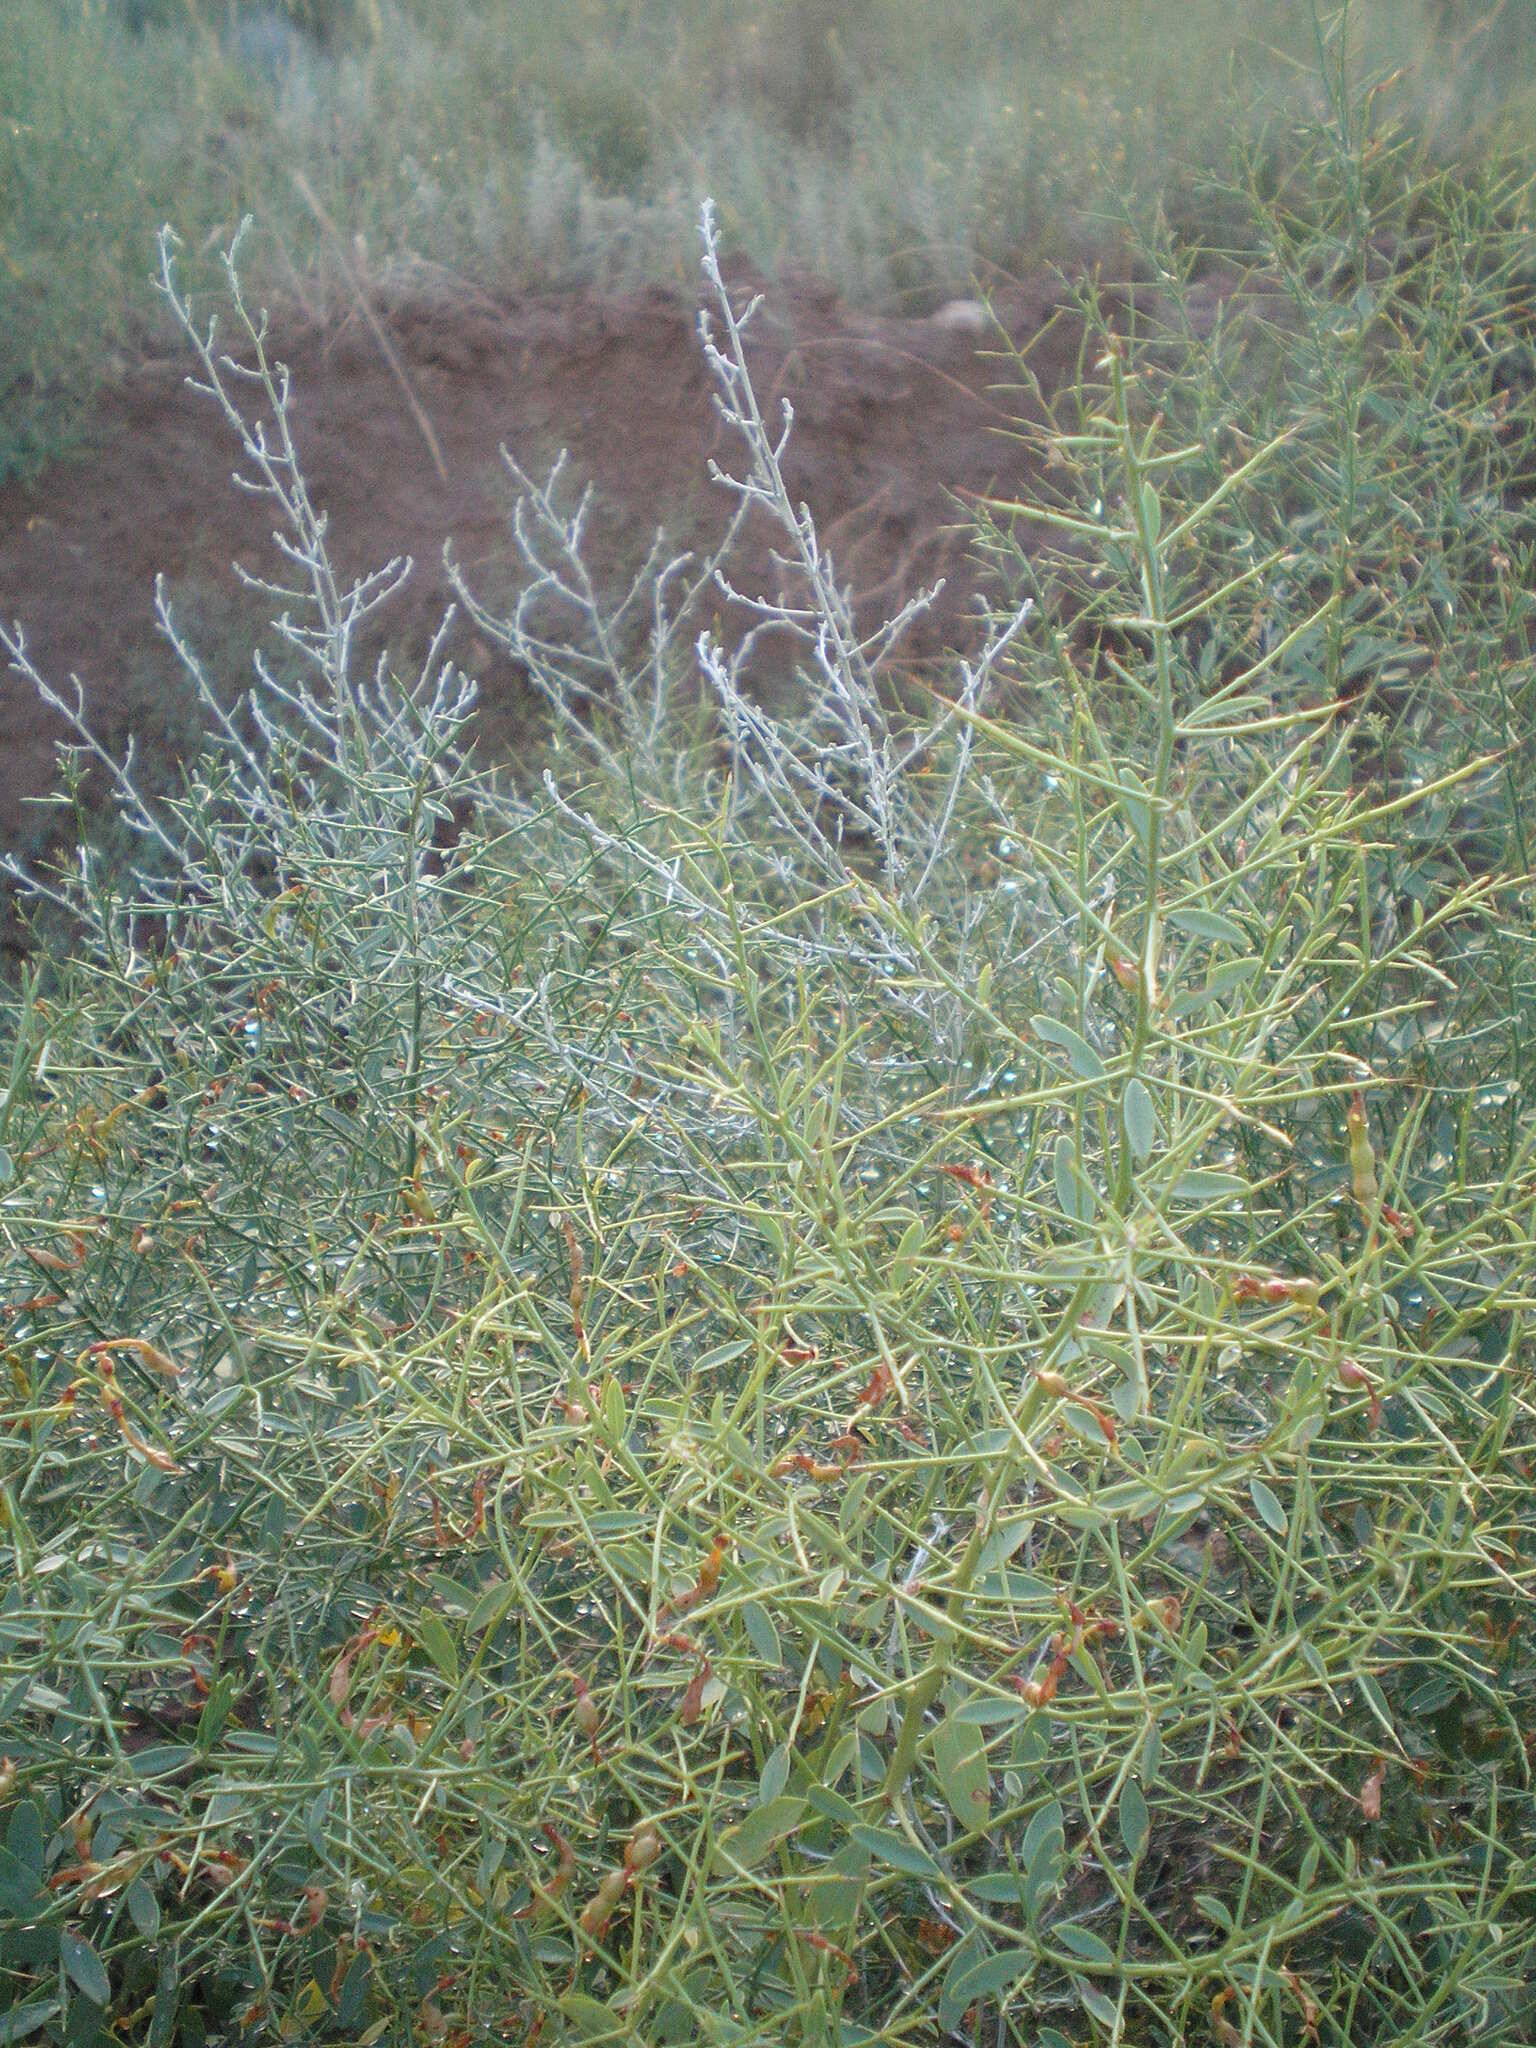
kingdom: Plantae
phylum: Tracheophyta
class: Magnoliopsida
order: Fabales
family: Fabaceae
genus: Alhagi
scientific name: Alhagi pseudalhagi
